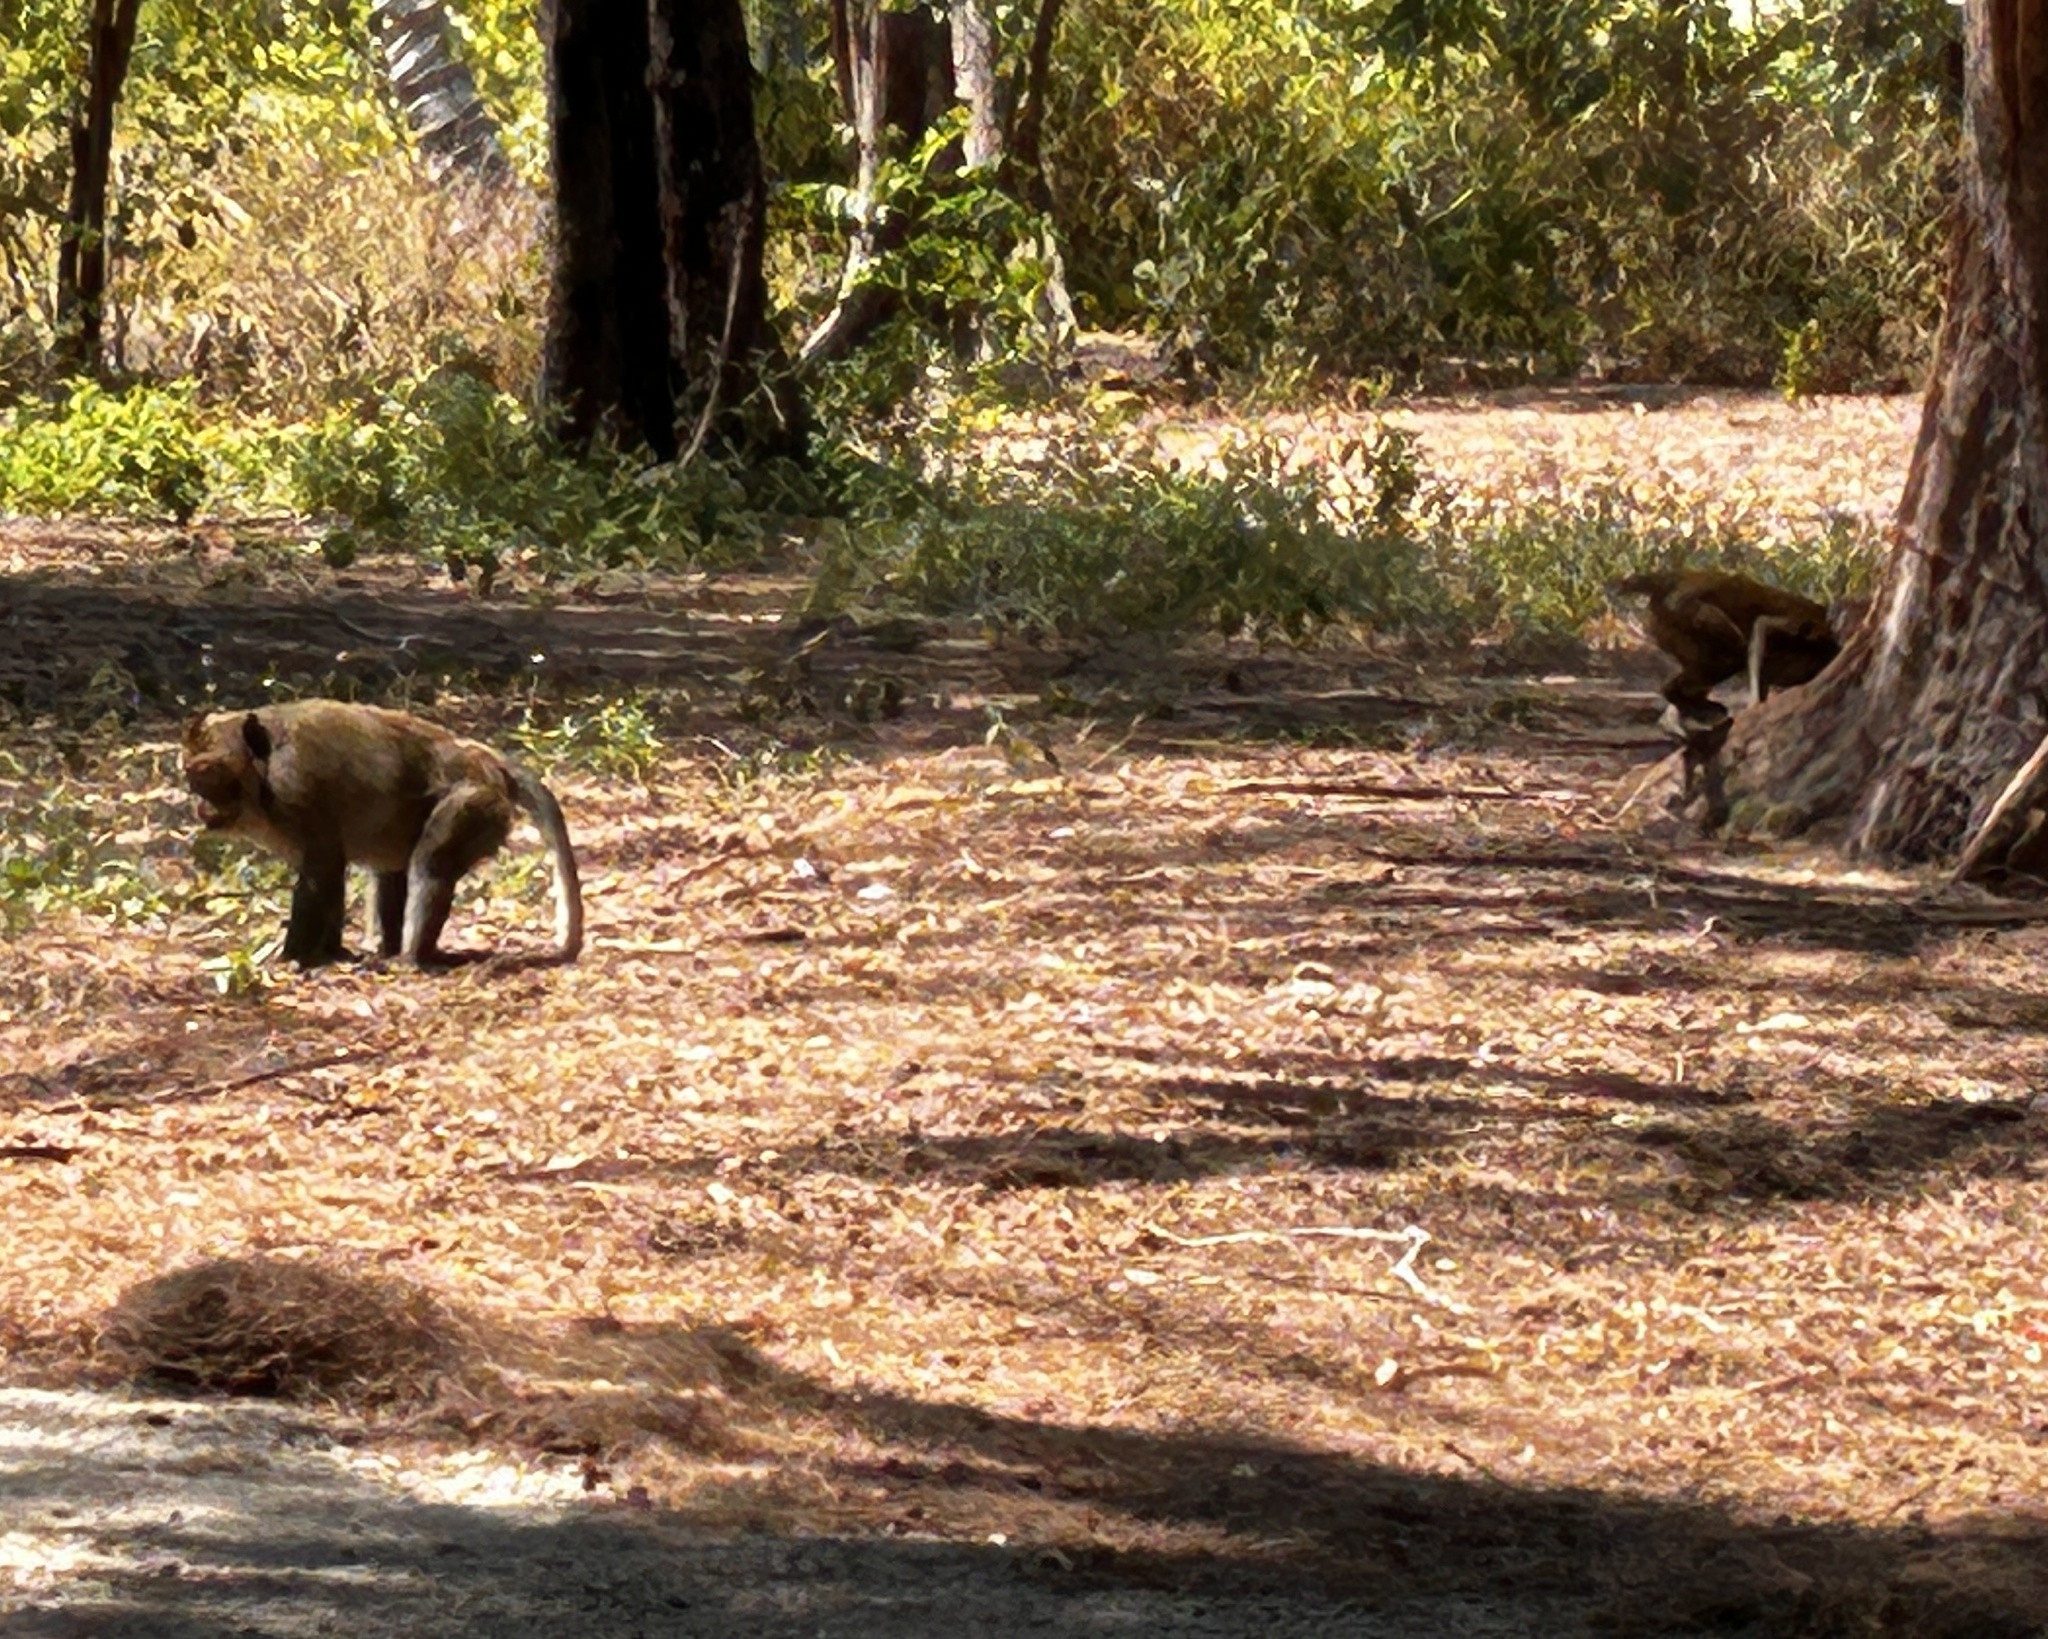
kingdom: Animalia
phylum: Chordata
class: Mammalia
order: Primates
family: Cercopithecidae
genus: Macaca
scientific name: Macaca fascicularis
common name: Crab-eating macaque
